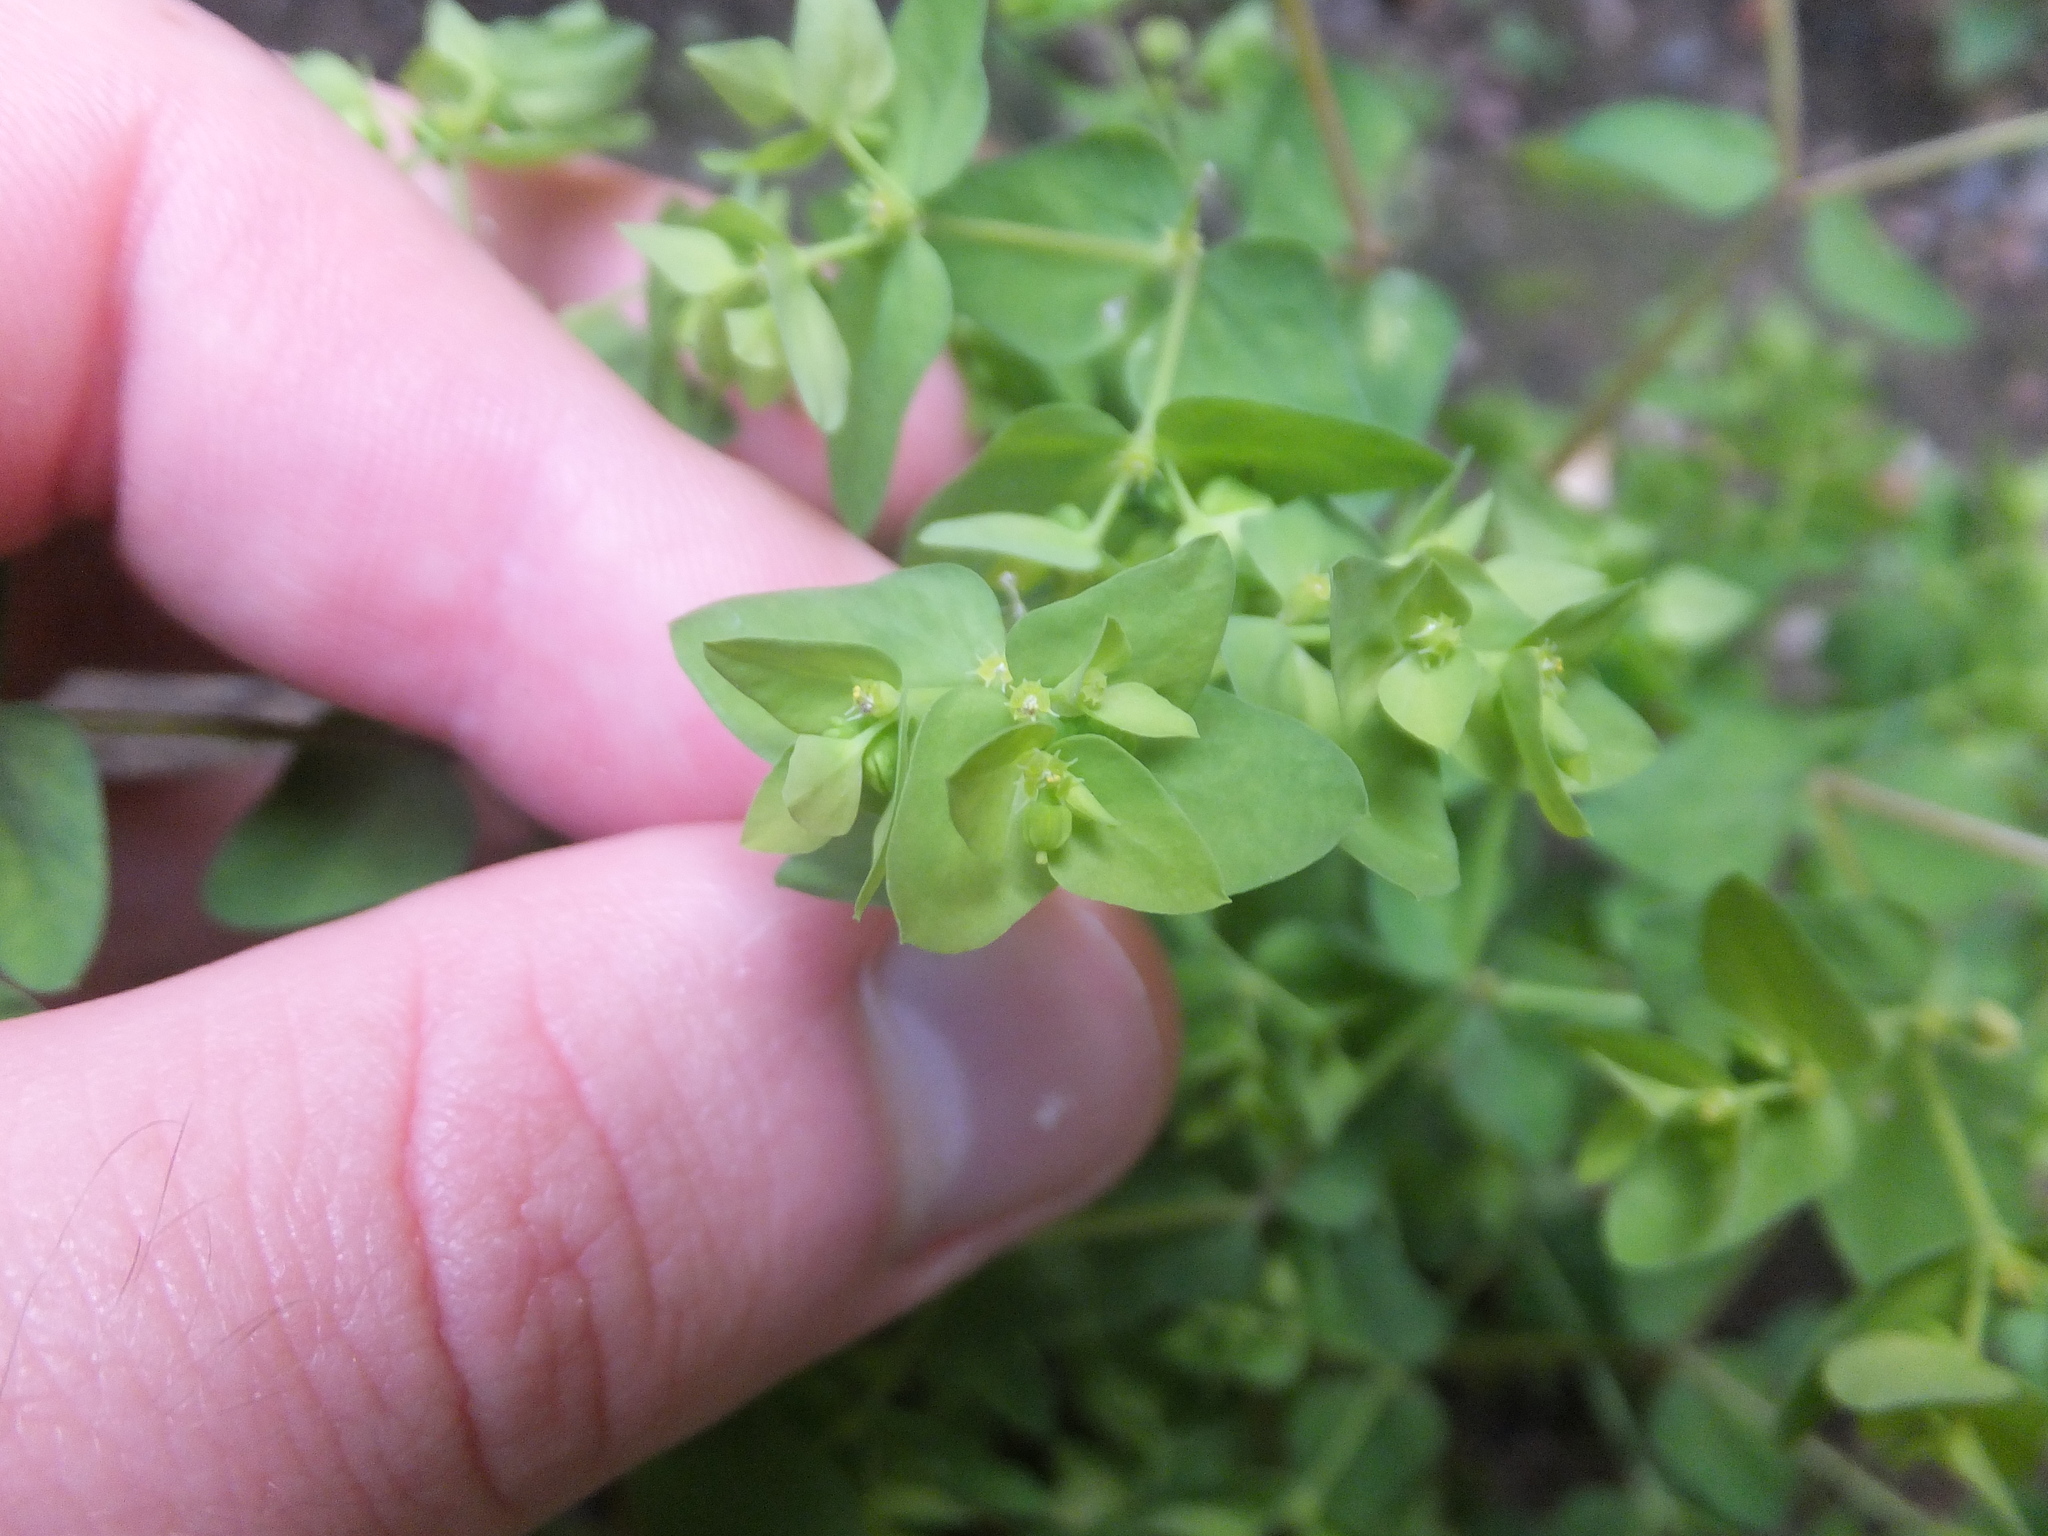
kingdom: Plantae
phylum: Tracheophyta
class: Magnoliopsida
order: Malpighiales
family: Euphorbiaceae
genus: Euphorbia
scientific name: Euphorbia peplus
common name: Petty spurge
